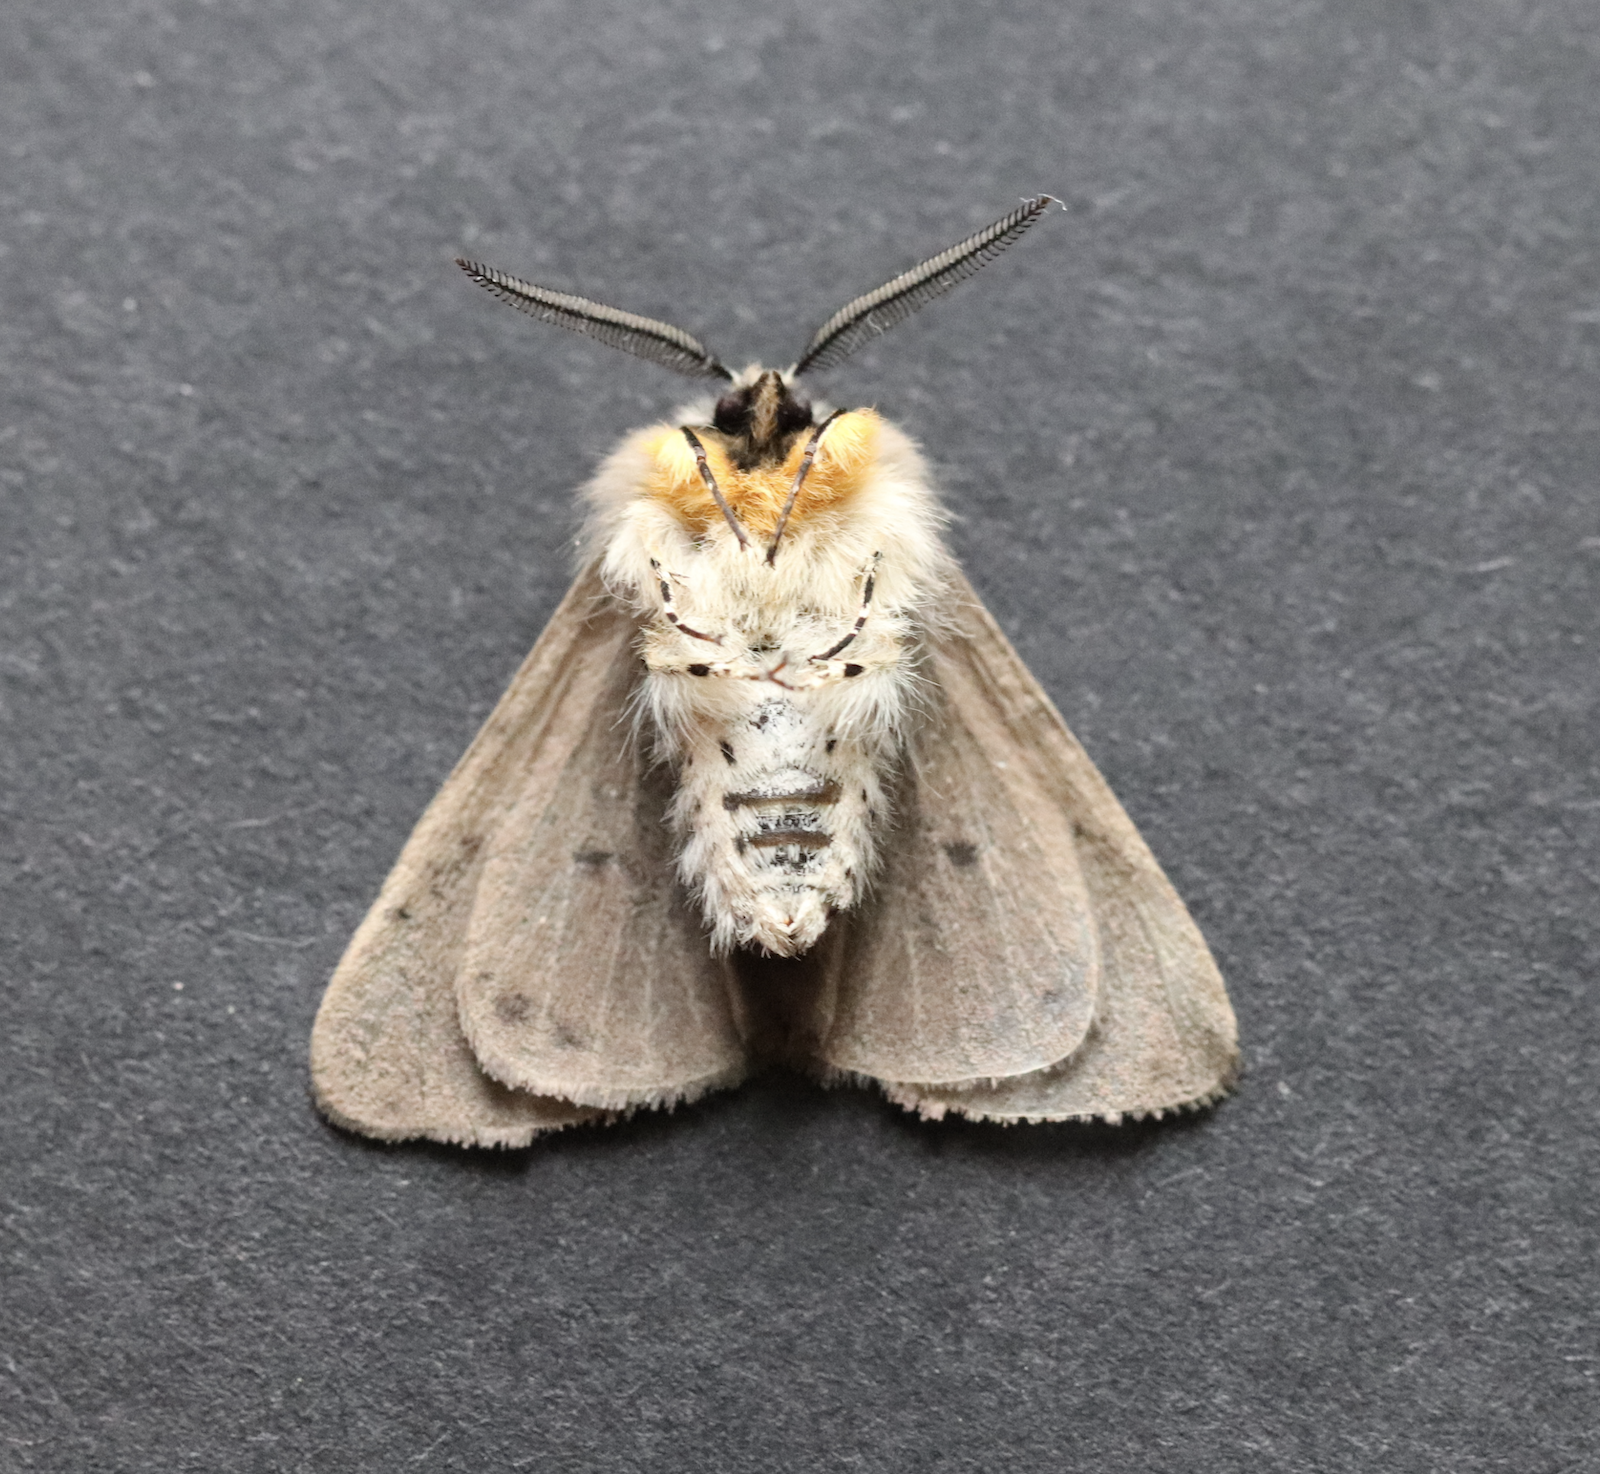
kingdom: Animalia
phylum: Arthropoda
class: Insecta
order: Lepidoptera
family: Erebidae
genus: Diaphora
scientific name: Diaphora mendica
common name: Muslin moth
